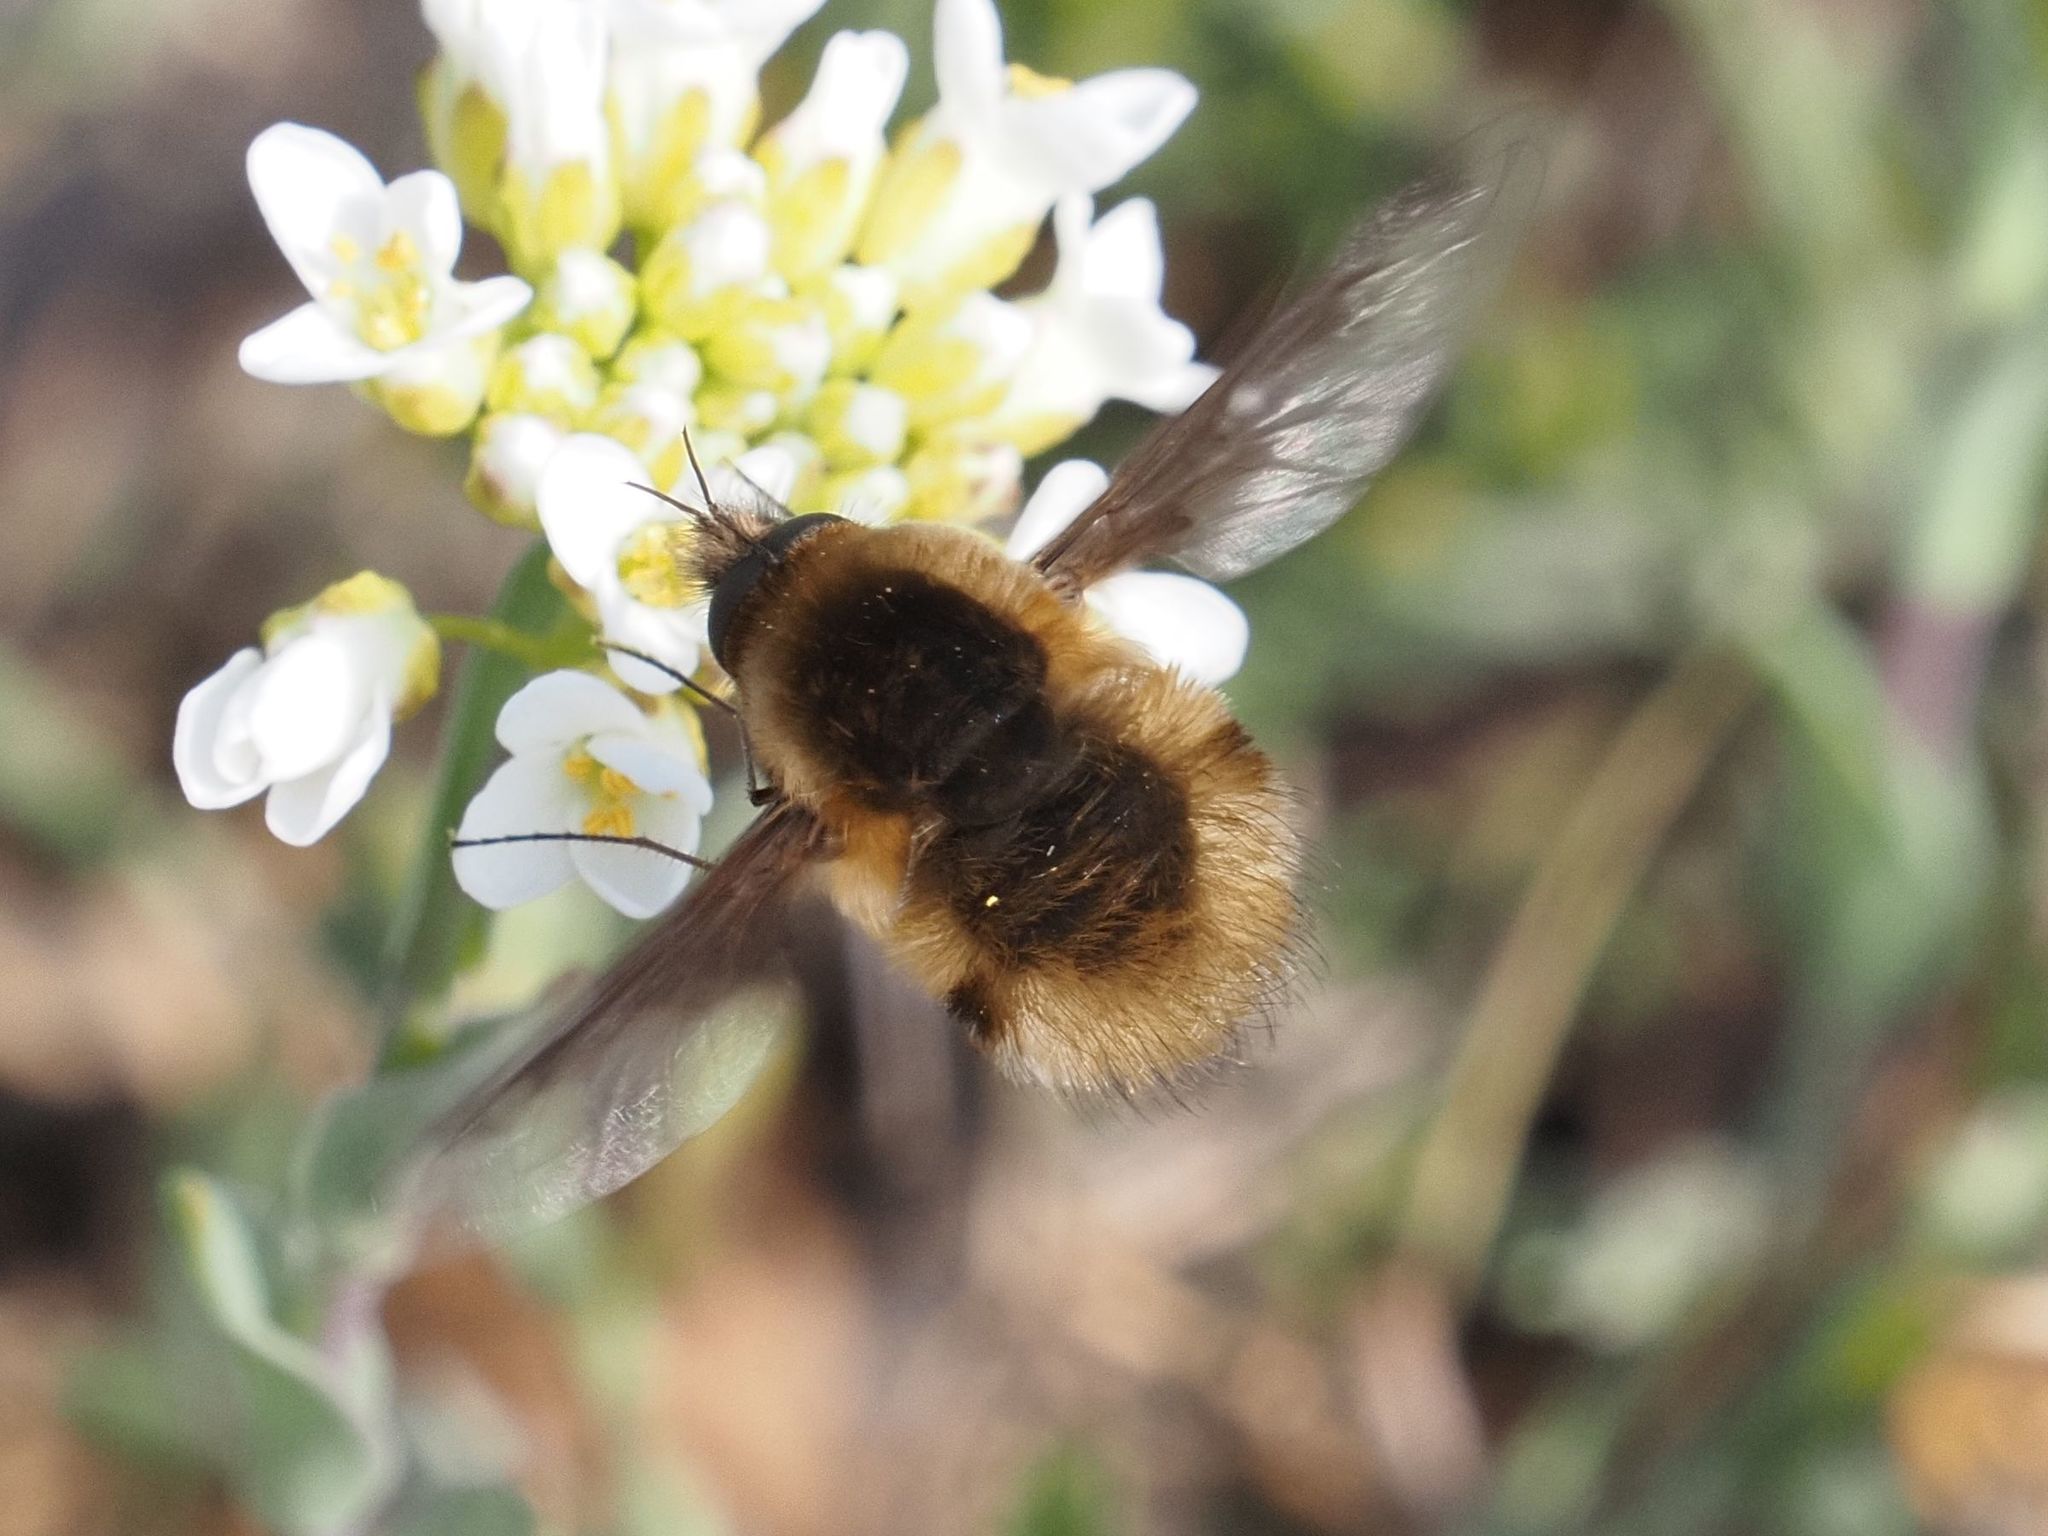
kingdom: Animalia
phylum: Arthropoda
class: Insecta
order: Diptera
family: Bombyliidae
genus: Bombylius
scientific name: Bombylius major
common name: Bee fly
